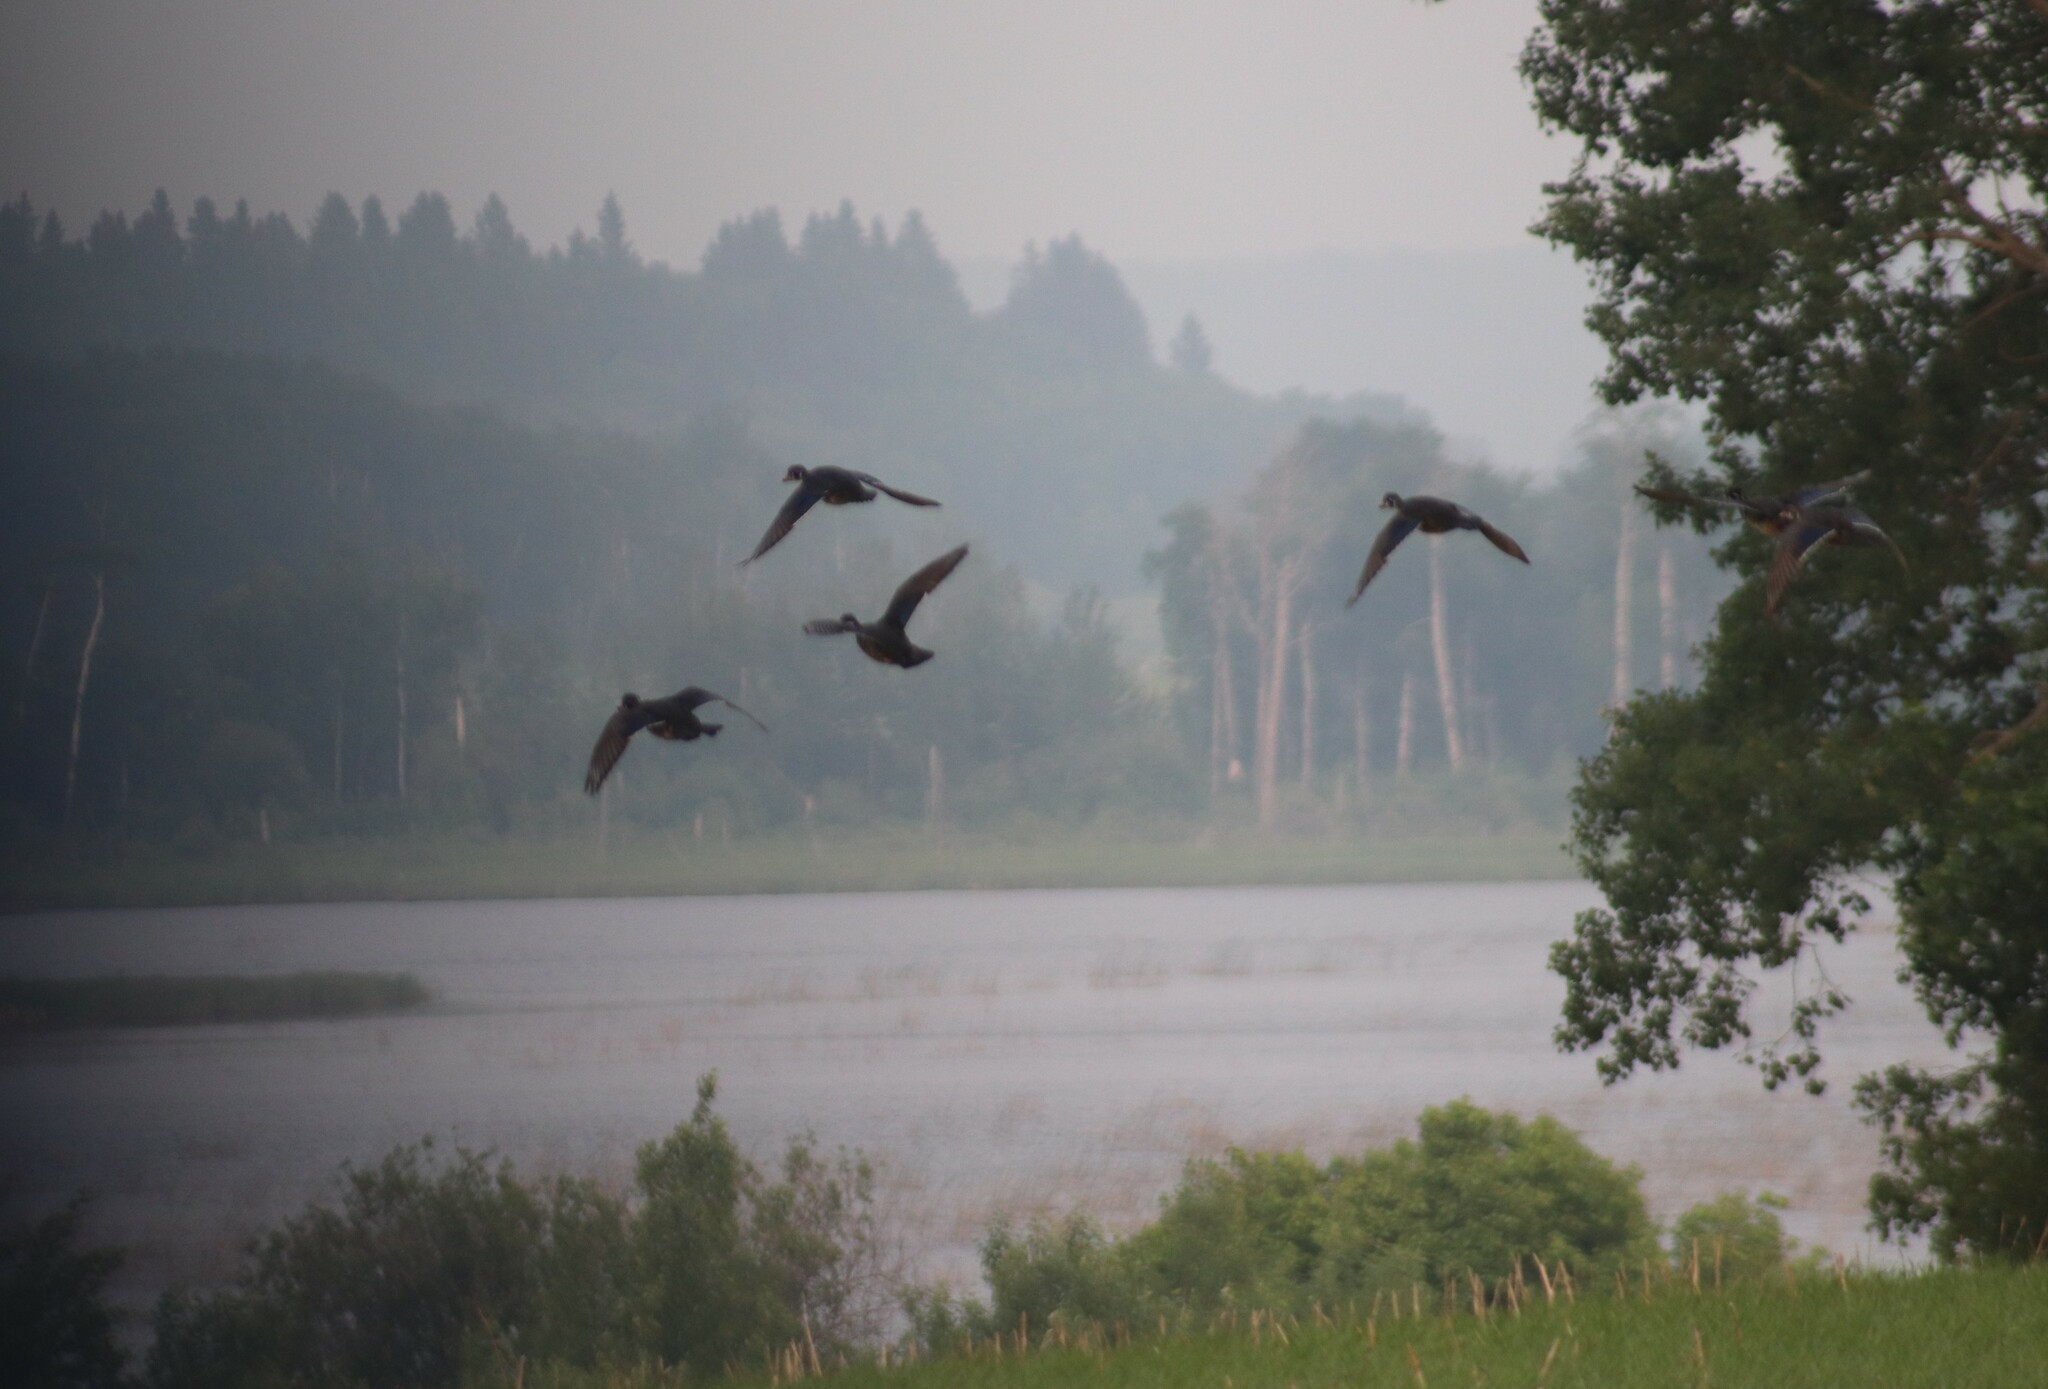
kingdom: Animalia
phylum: Chordata
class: Aves
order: Anseriformes
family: Anatidae
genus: Aix
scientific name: Aix sponsa
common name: Wood duck
